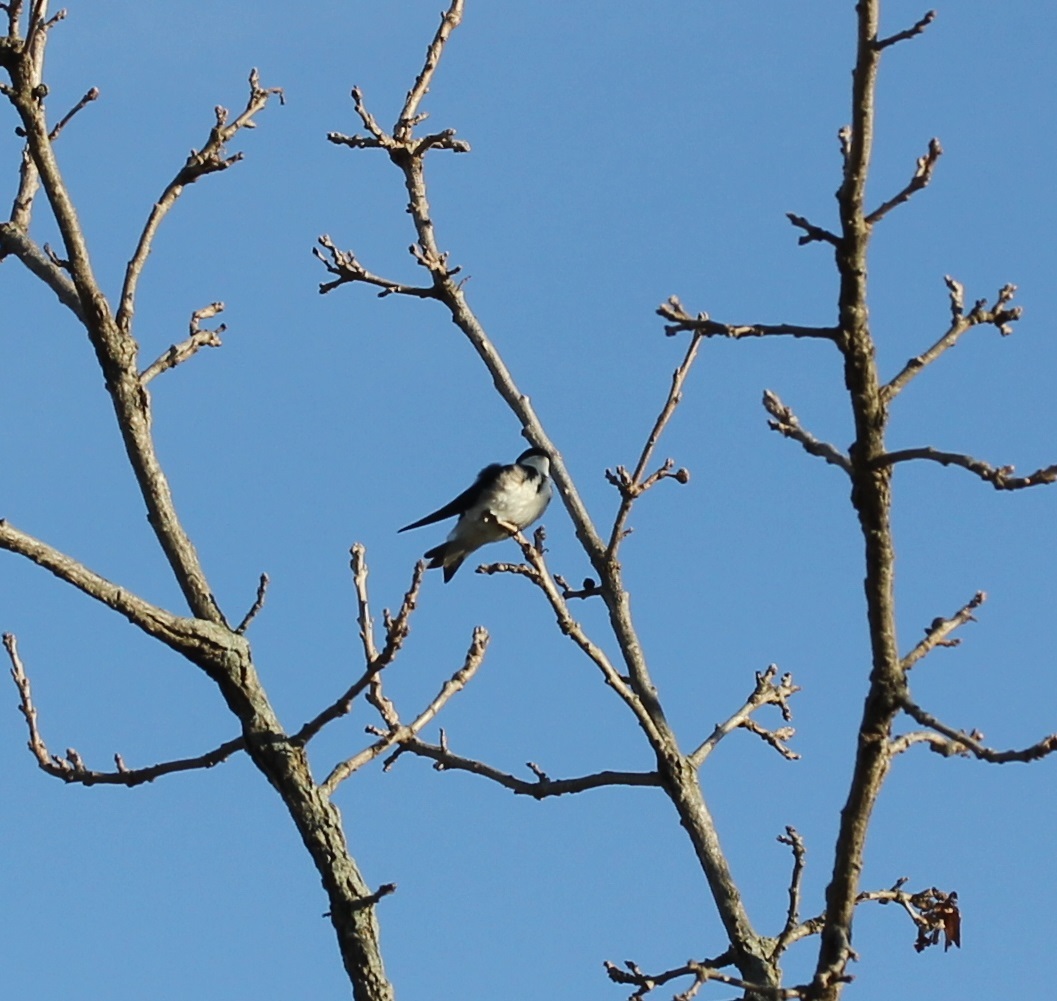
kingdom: Animalia
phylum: Chordata
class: Aves
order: Passeriformes
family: Hirundinidae
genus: Tachycineta
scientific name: Tachycineta bicolor
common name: Tree swallow
